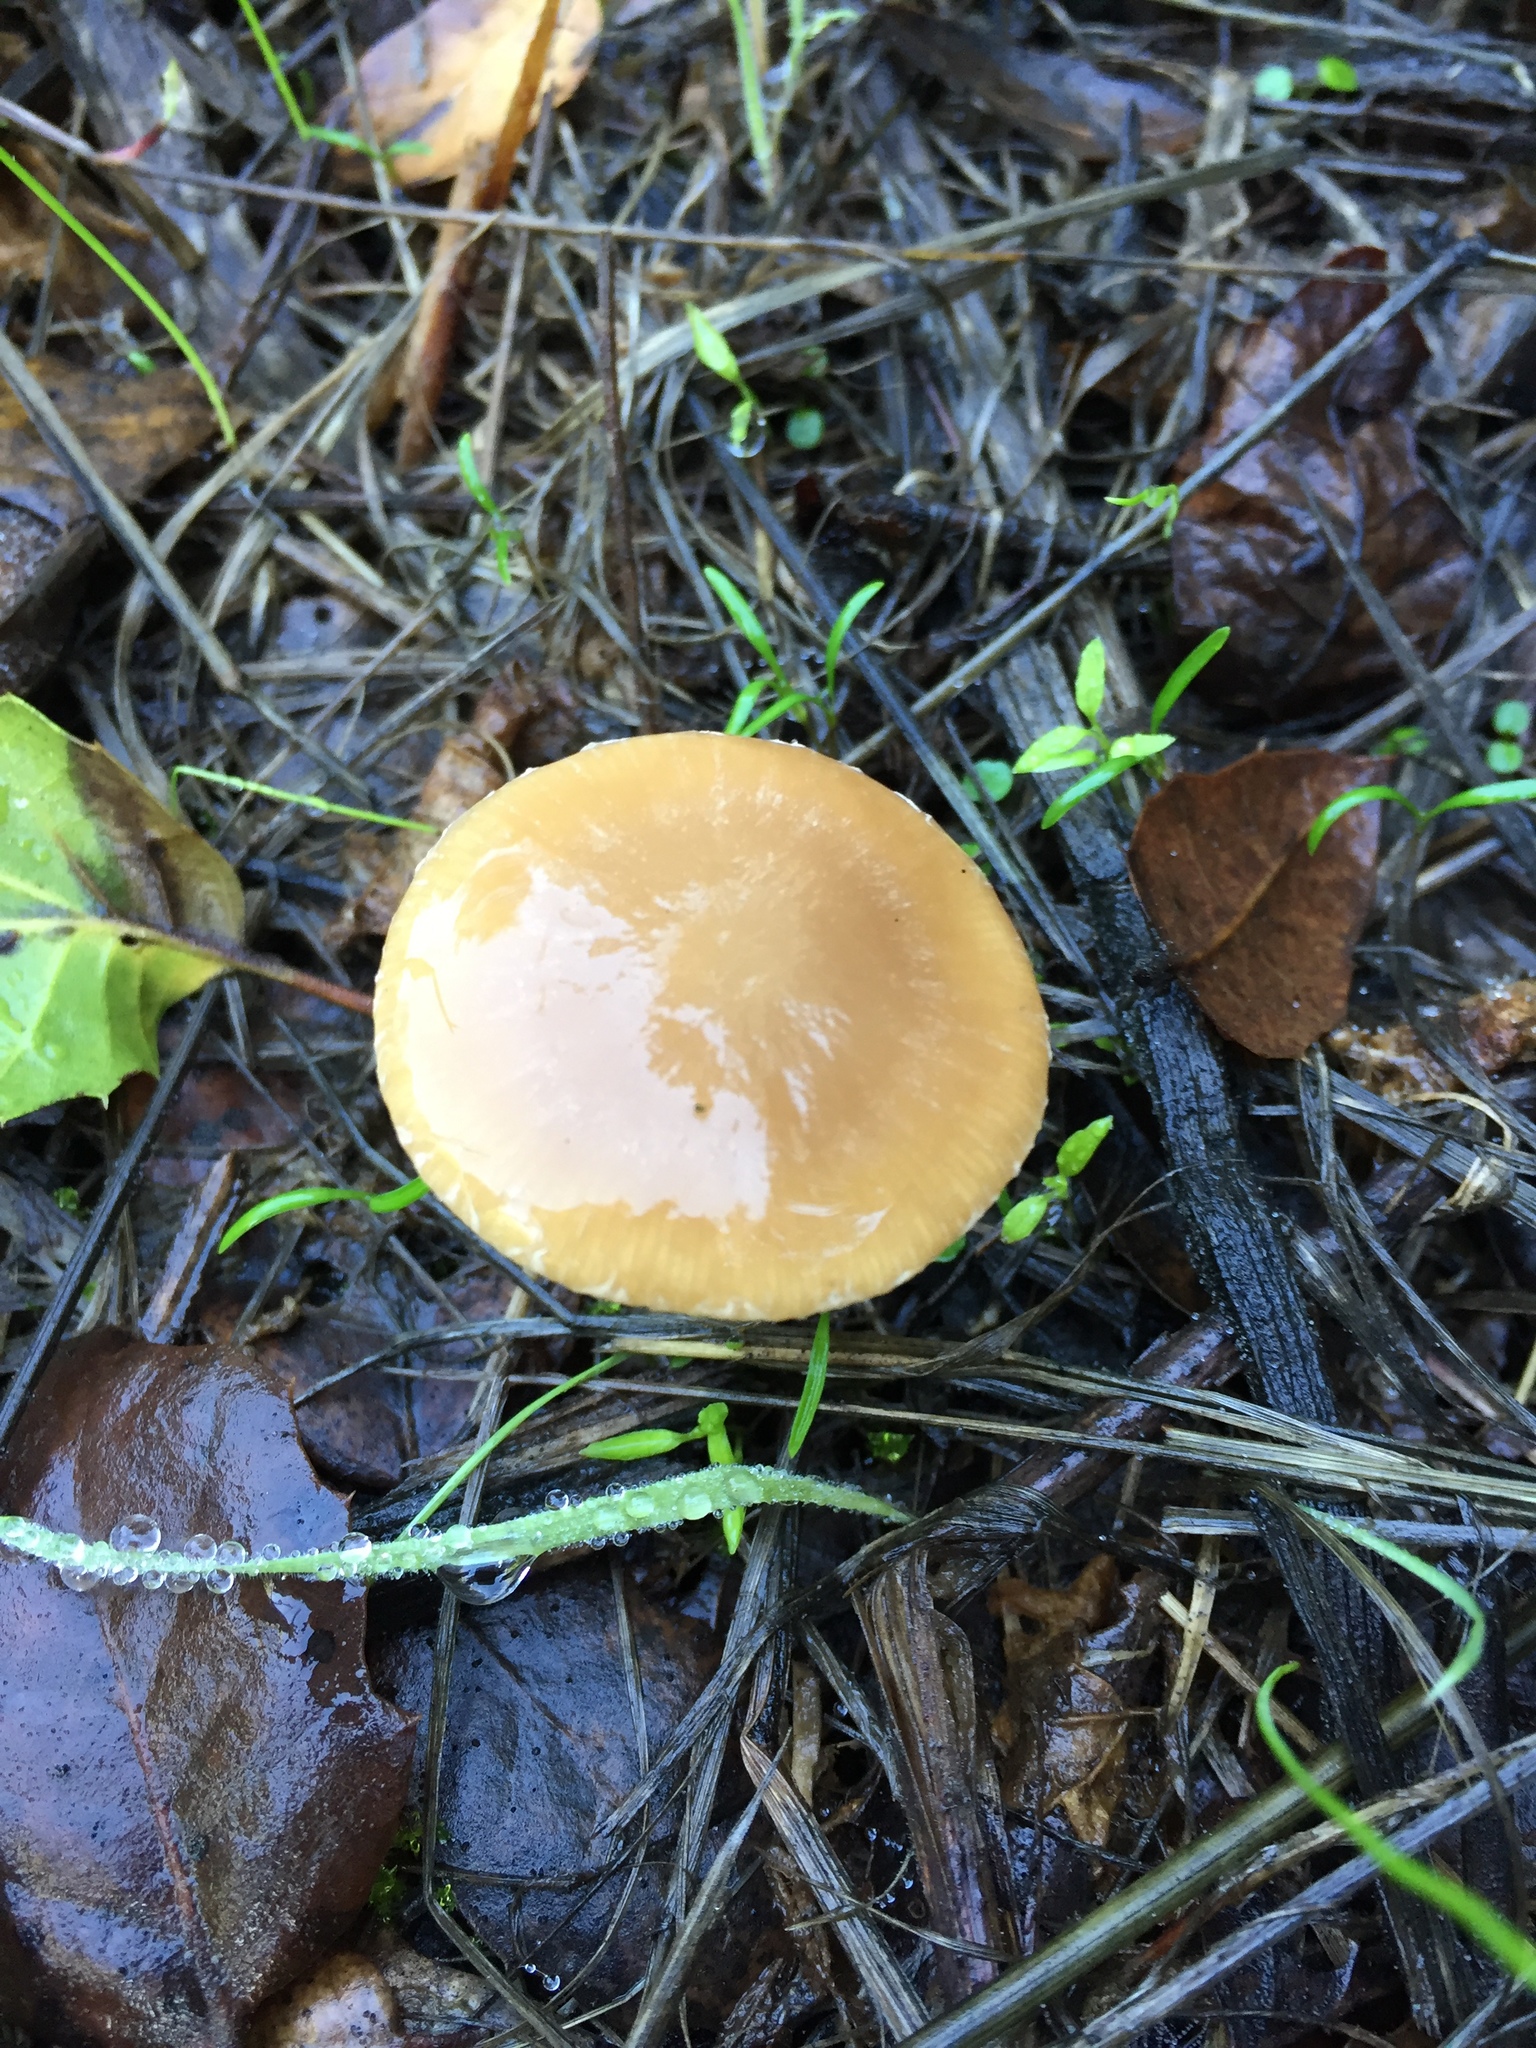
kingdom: Fungi
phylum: Basidiomycota
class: Agaricomycetes
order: Agaricales
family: Bolbitiaceae
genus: Bolbitius
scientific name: Bolbitius titubans
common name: Yellow fieldcap
